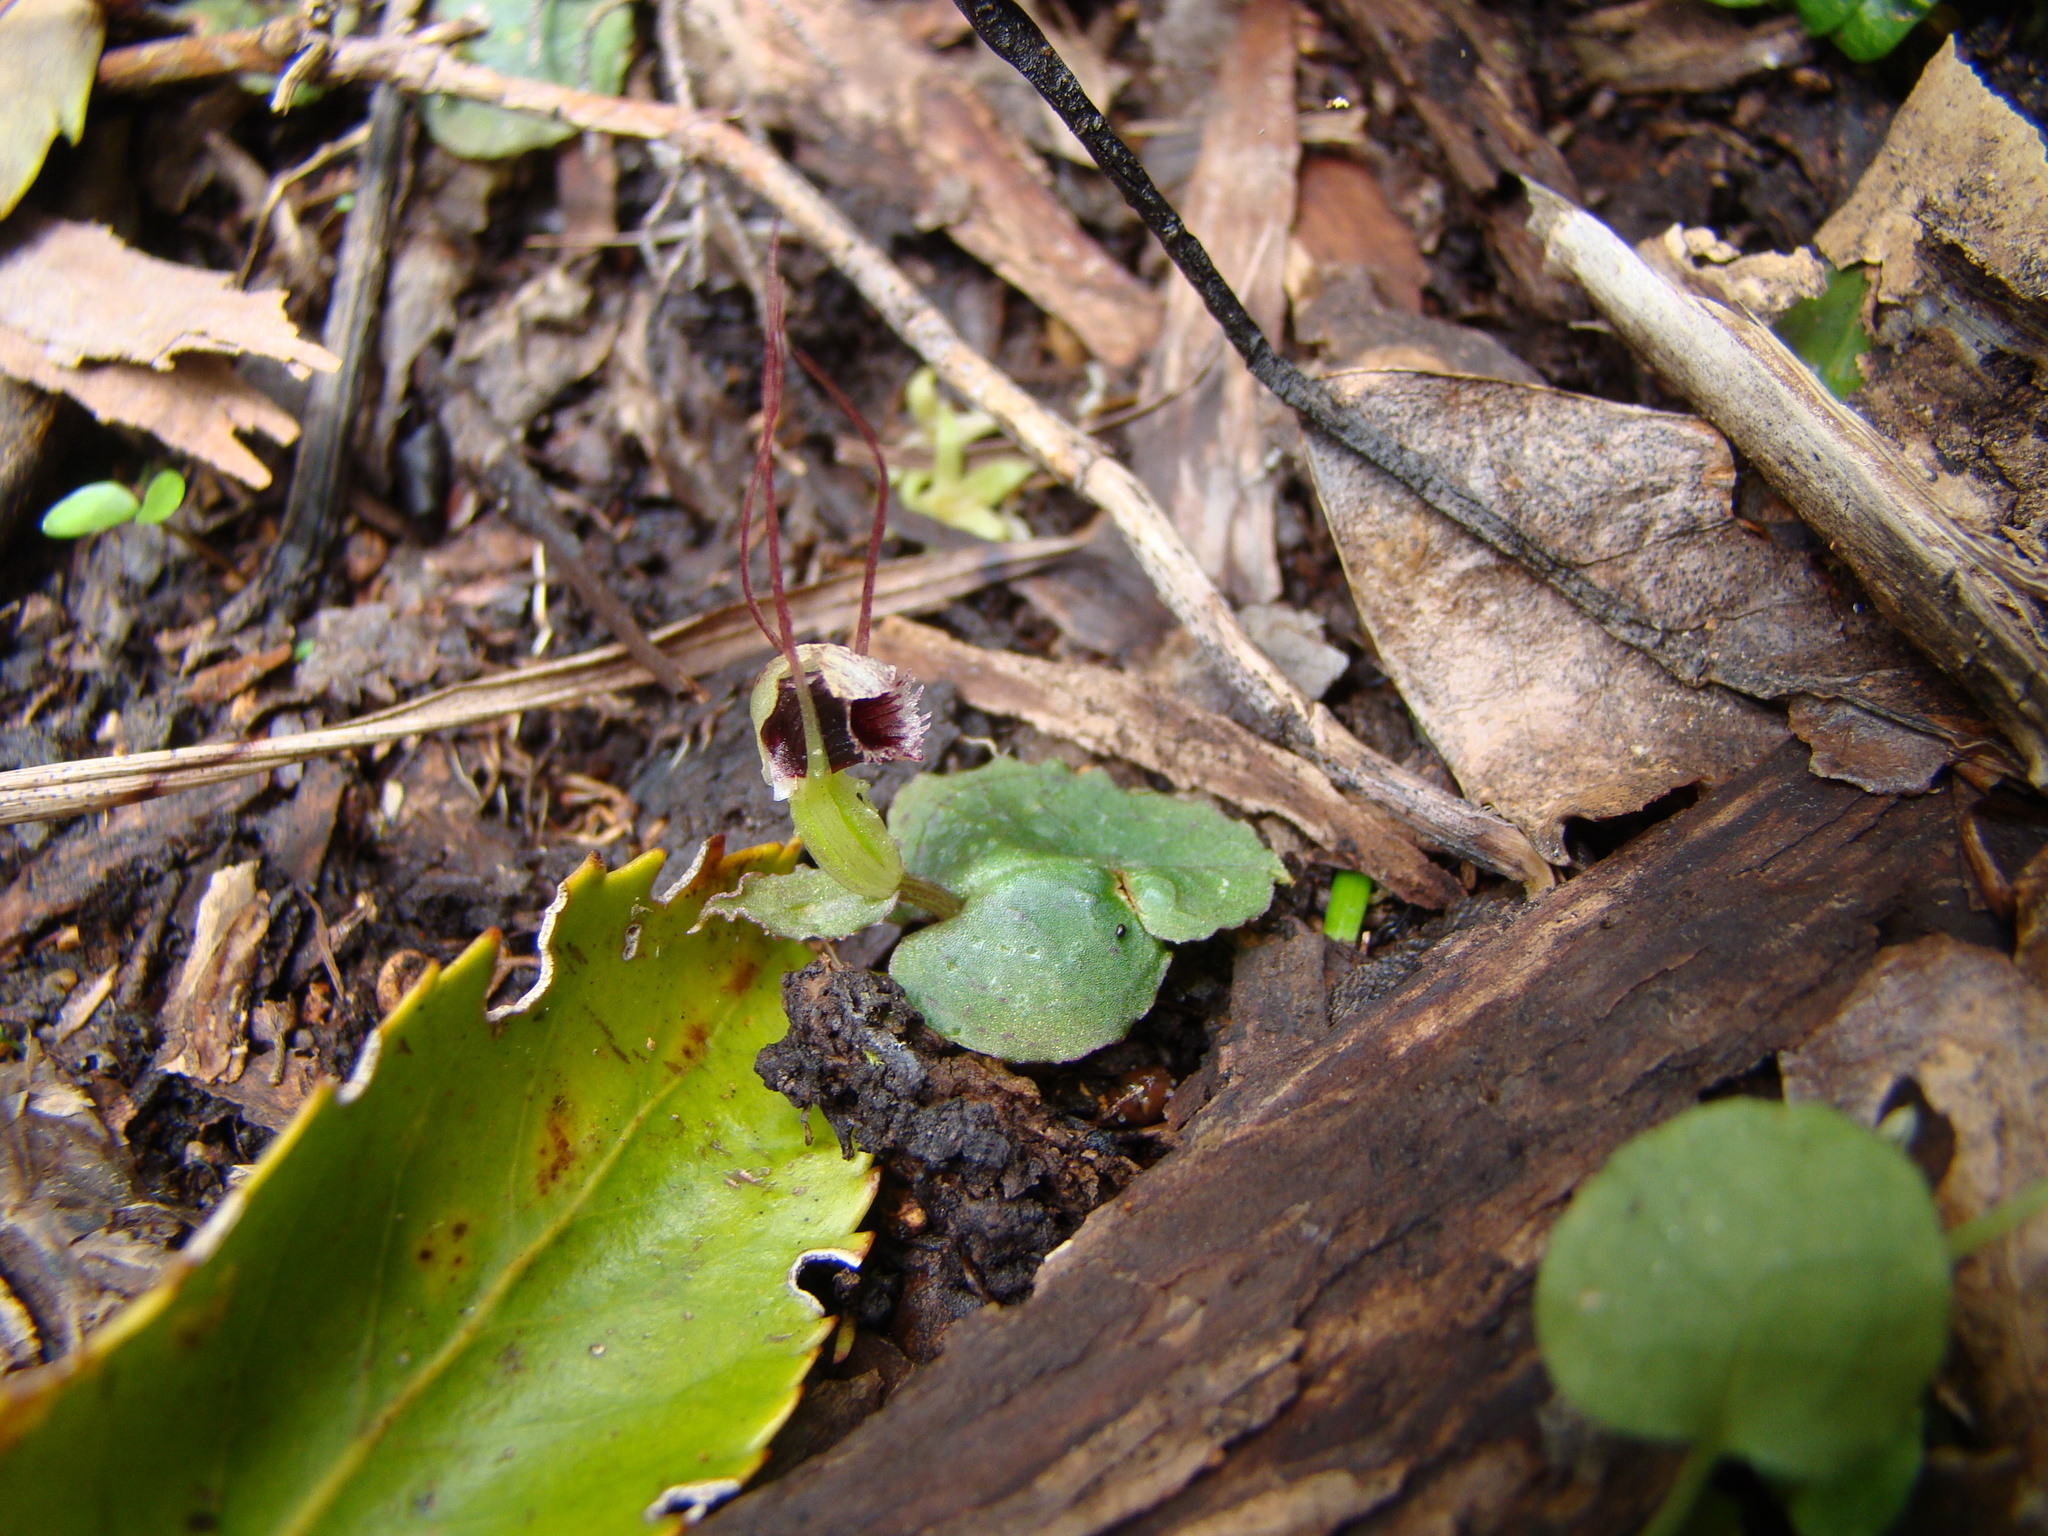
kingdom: Plantae
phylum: Tracheophyta
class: Liliopsida
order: Asparagales
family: Orchidaceae
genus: Corybas
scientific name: Corybas oblongus
